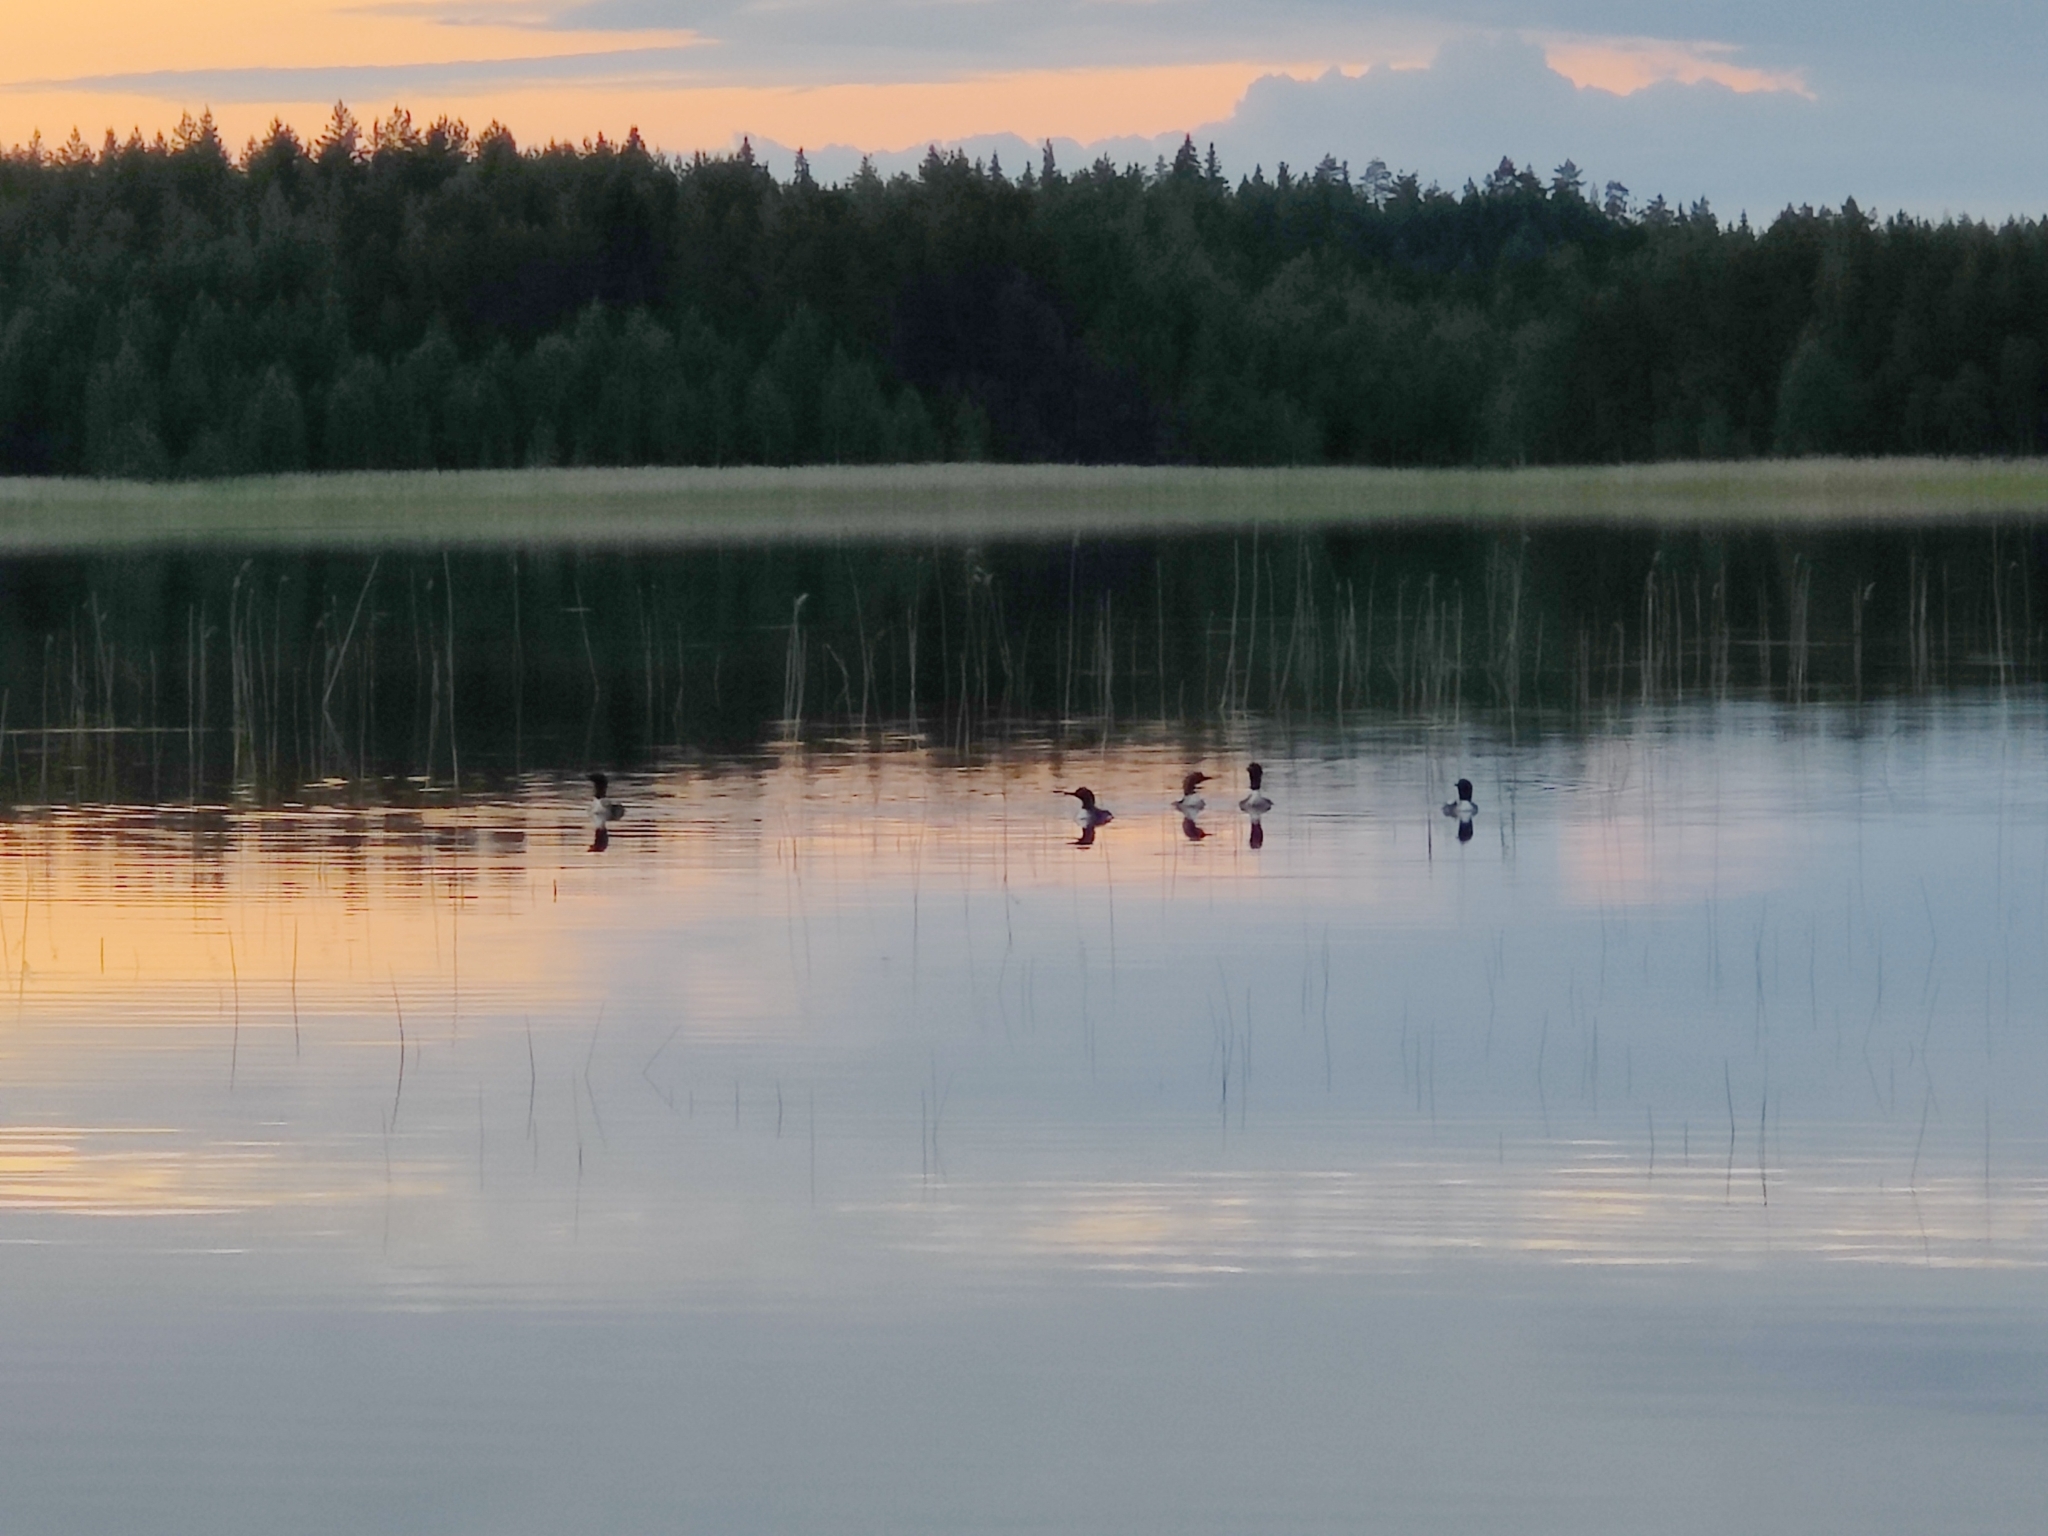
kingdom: Animalia
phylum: Chordata
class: Aves
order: Gaviiformes
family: Gaviidae
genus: Gavia
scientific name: Gavia arctica
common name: Black-throated loon
